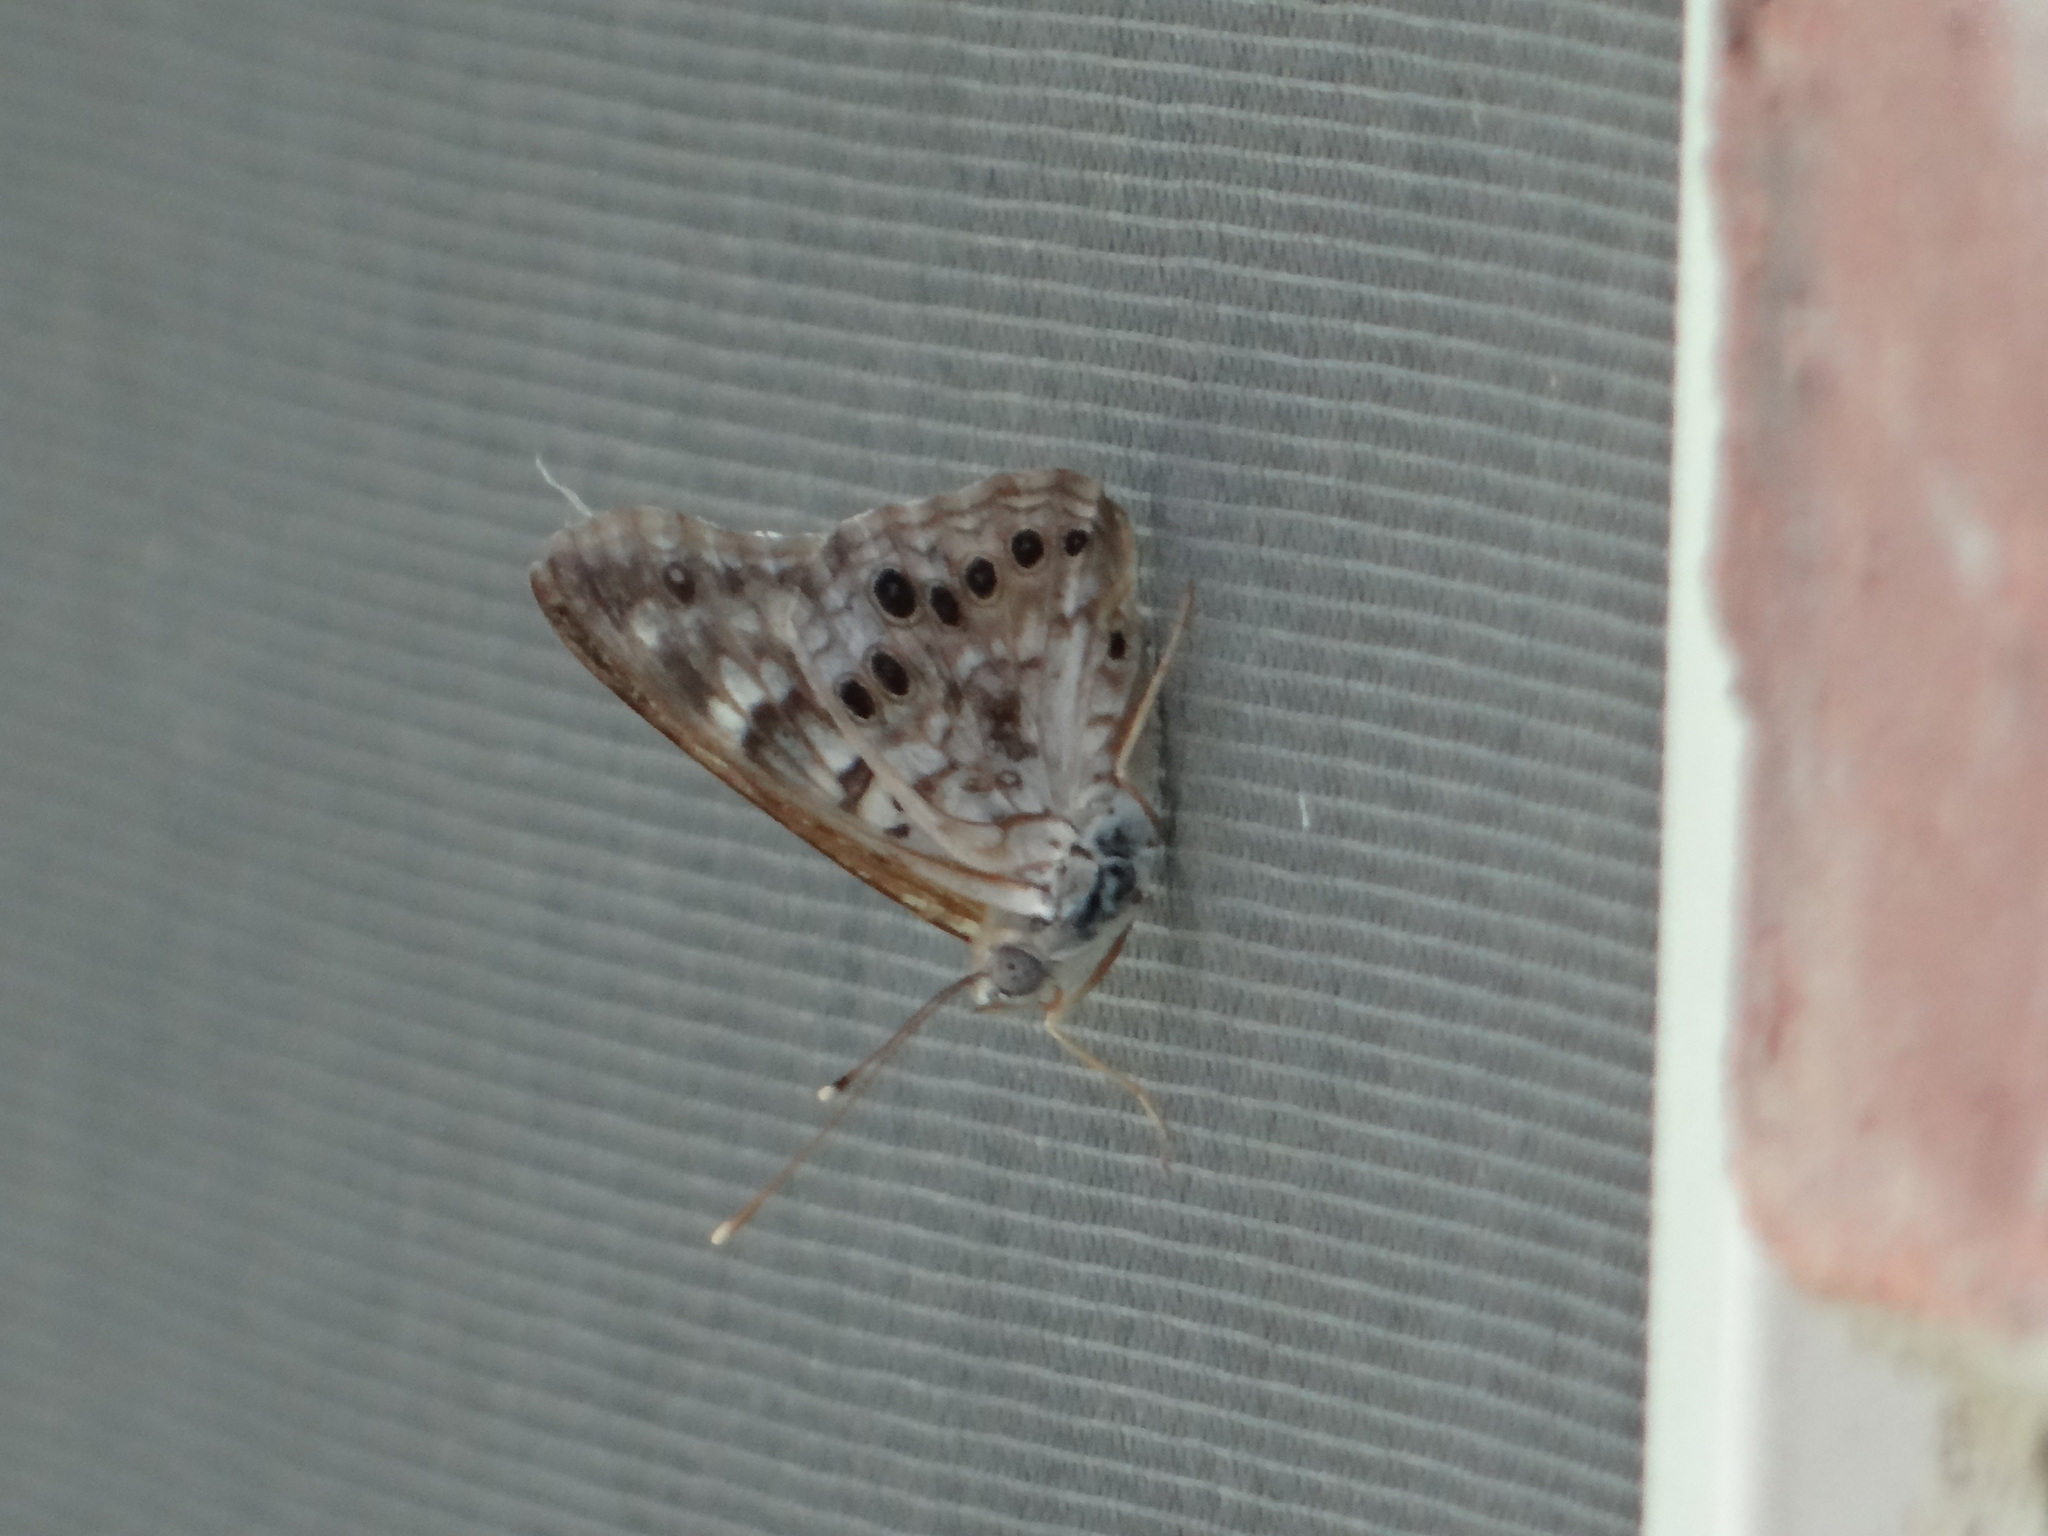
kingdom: Animalia
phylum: Arthropoda
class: Insecta
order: Lepidoptera
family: Nymphalidae
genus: Asterocampa
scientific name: Asterocampa celtis
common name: Hackberry emperor
